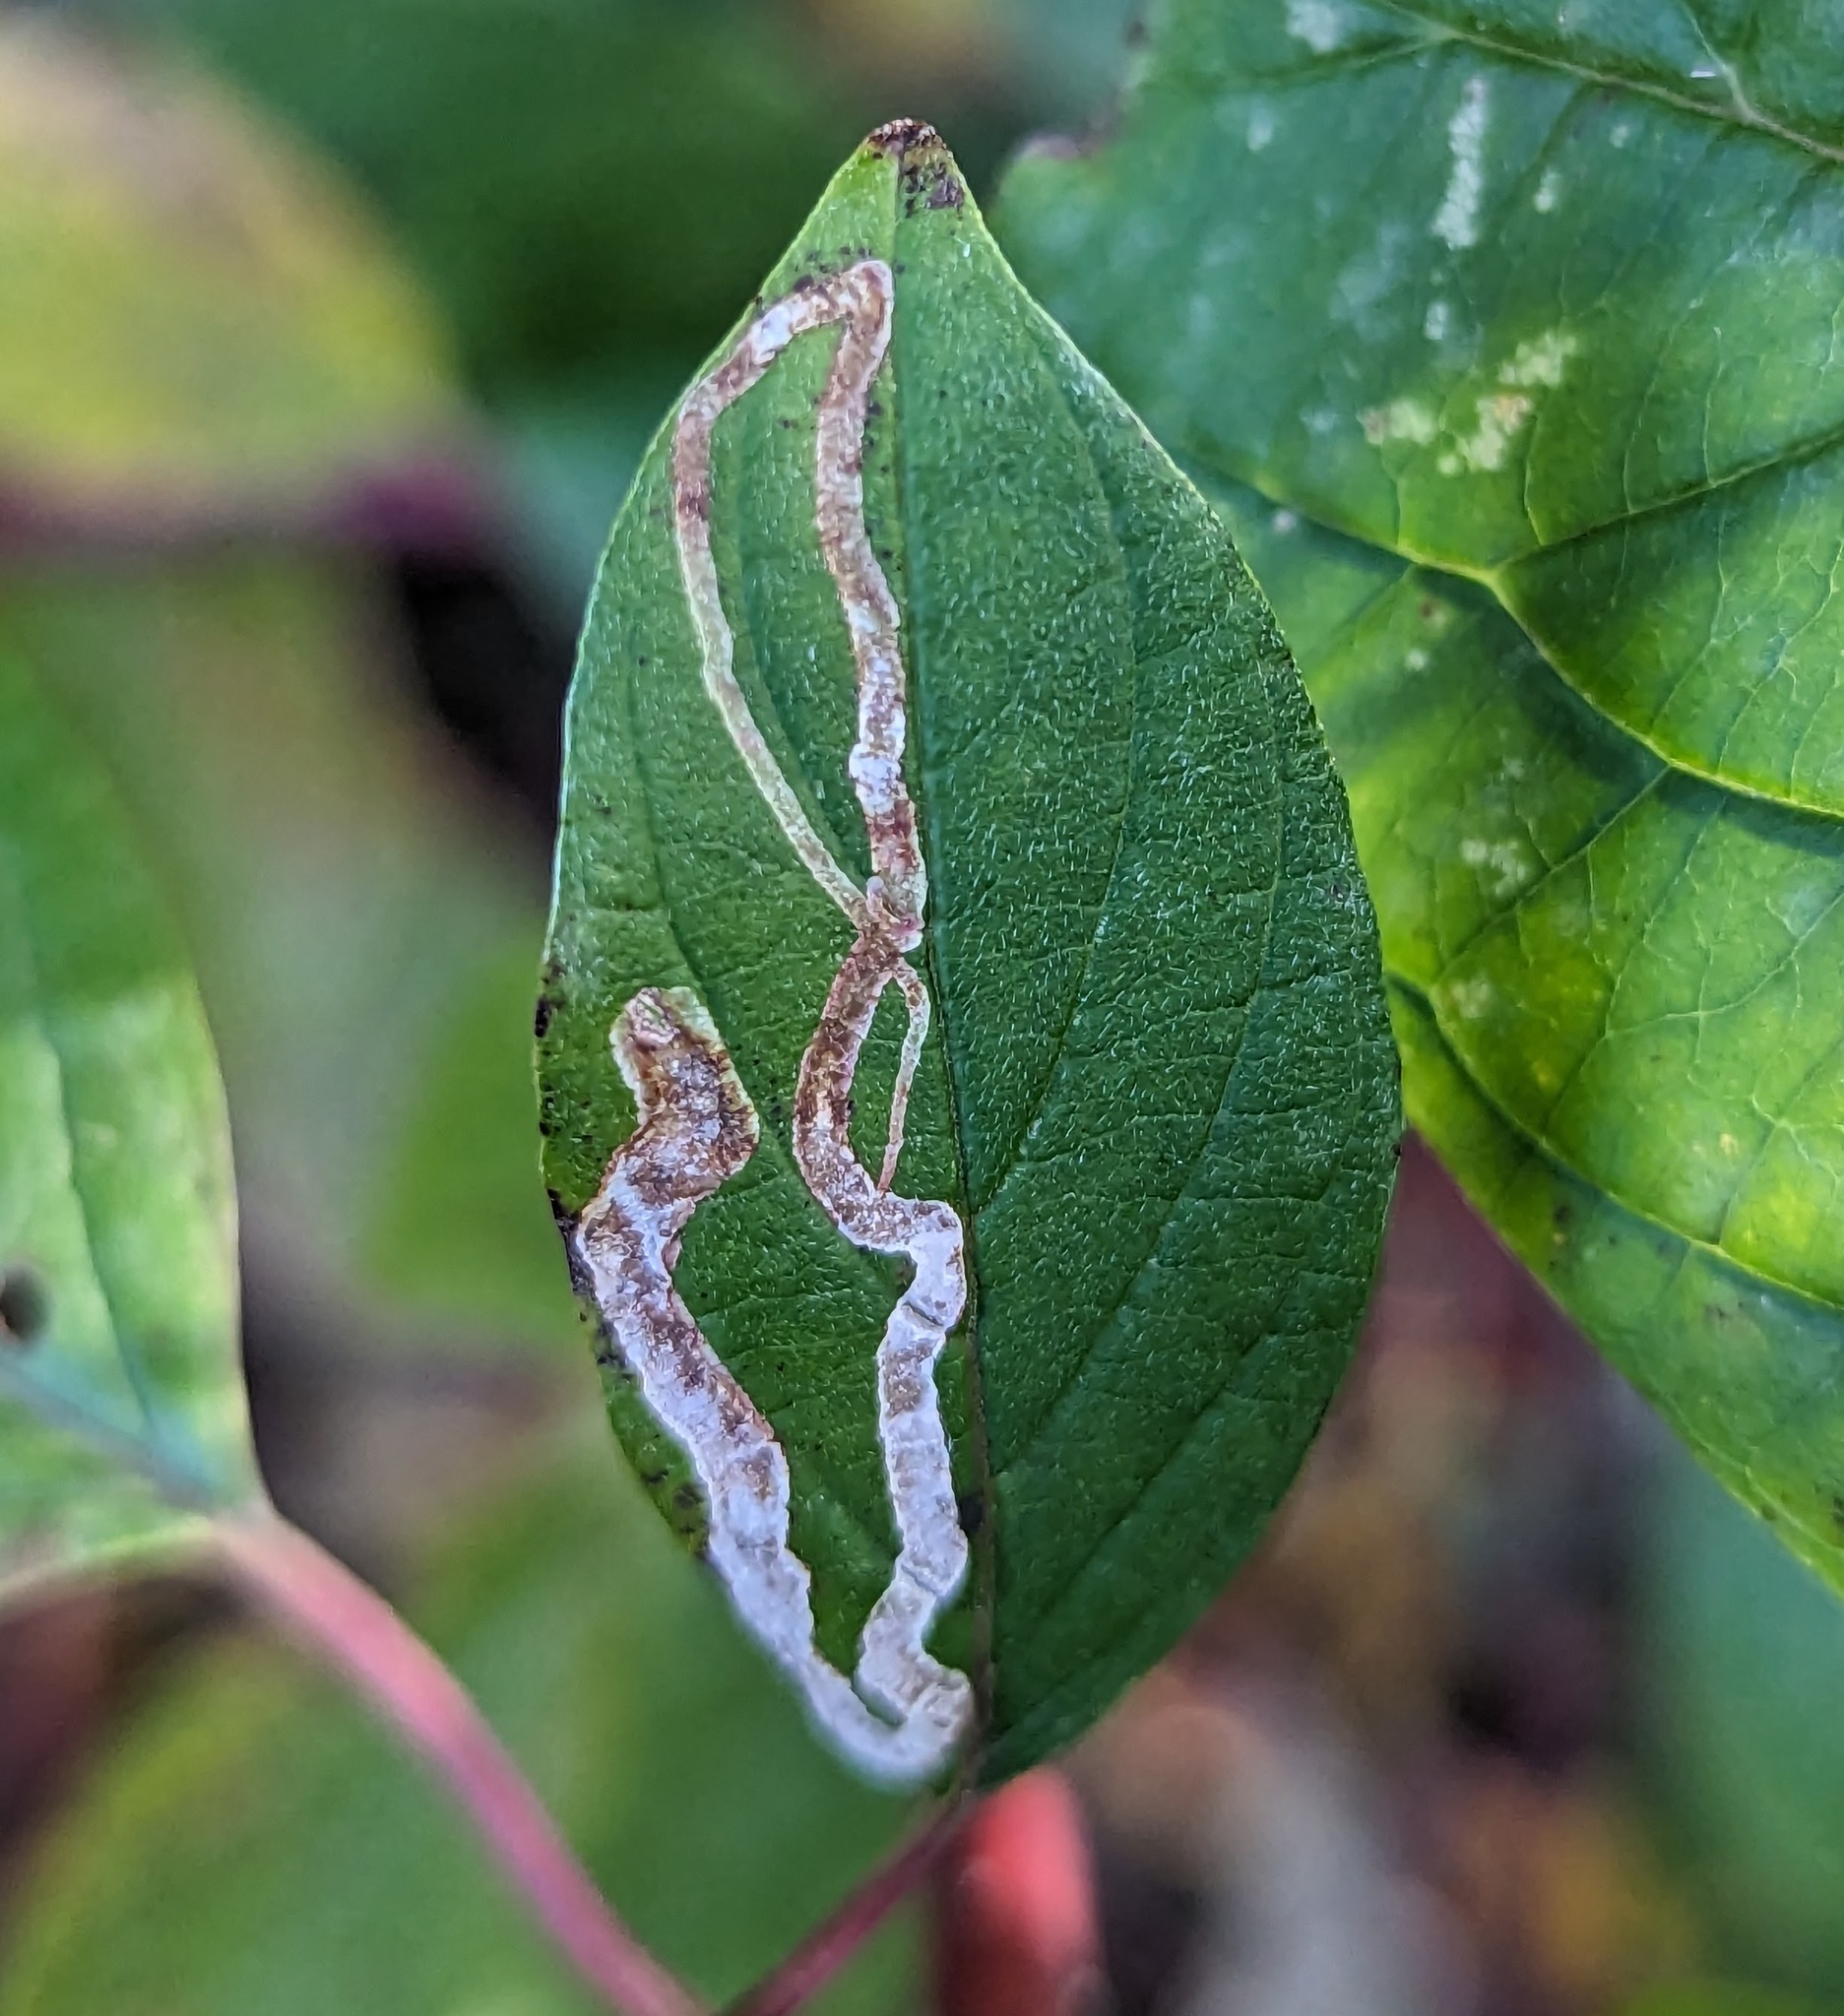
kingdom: Animalia
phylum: Arthropoda
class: Insecta
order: Diptera
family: Agromyzidae
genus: Phytomyza
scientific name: Phytomyza agromyzina
